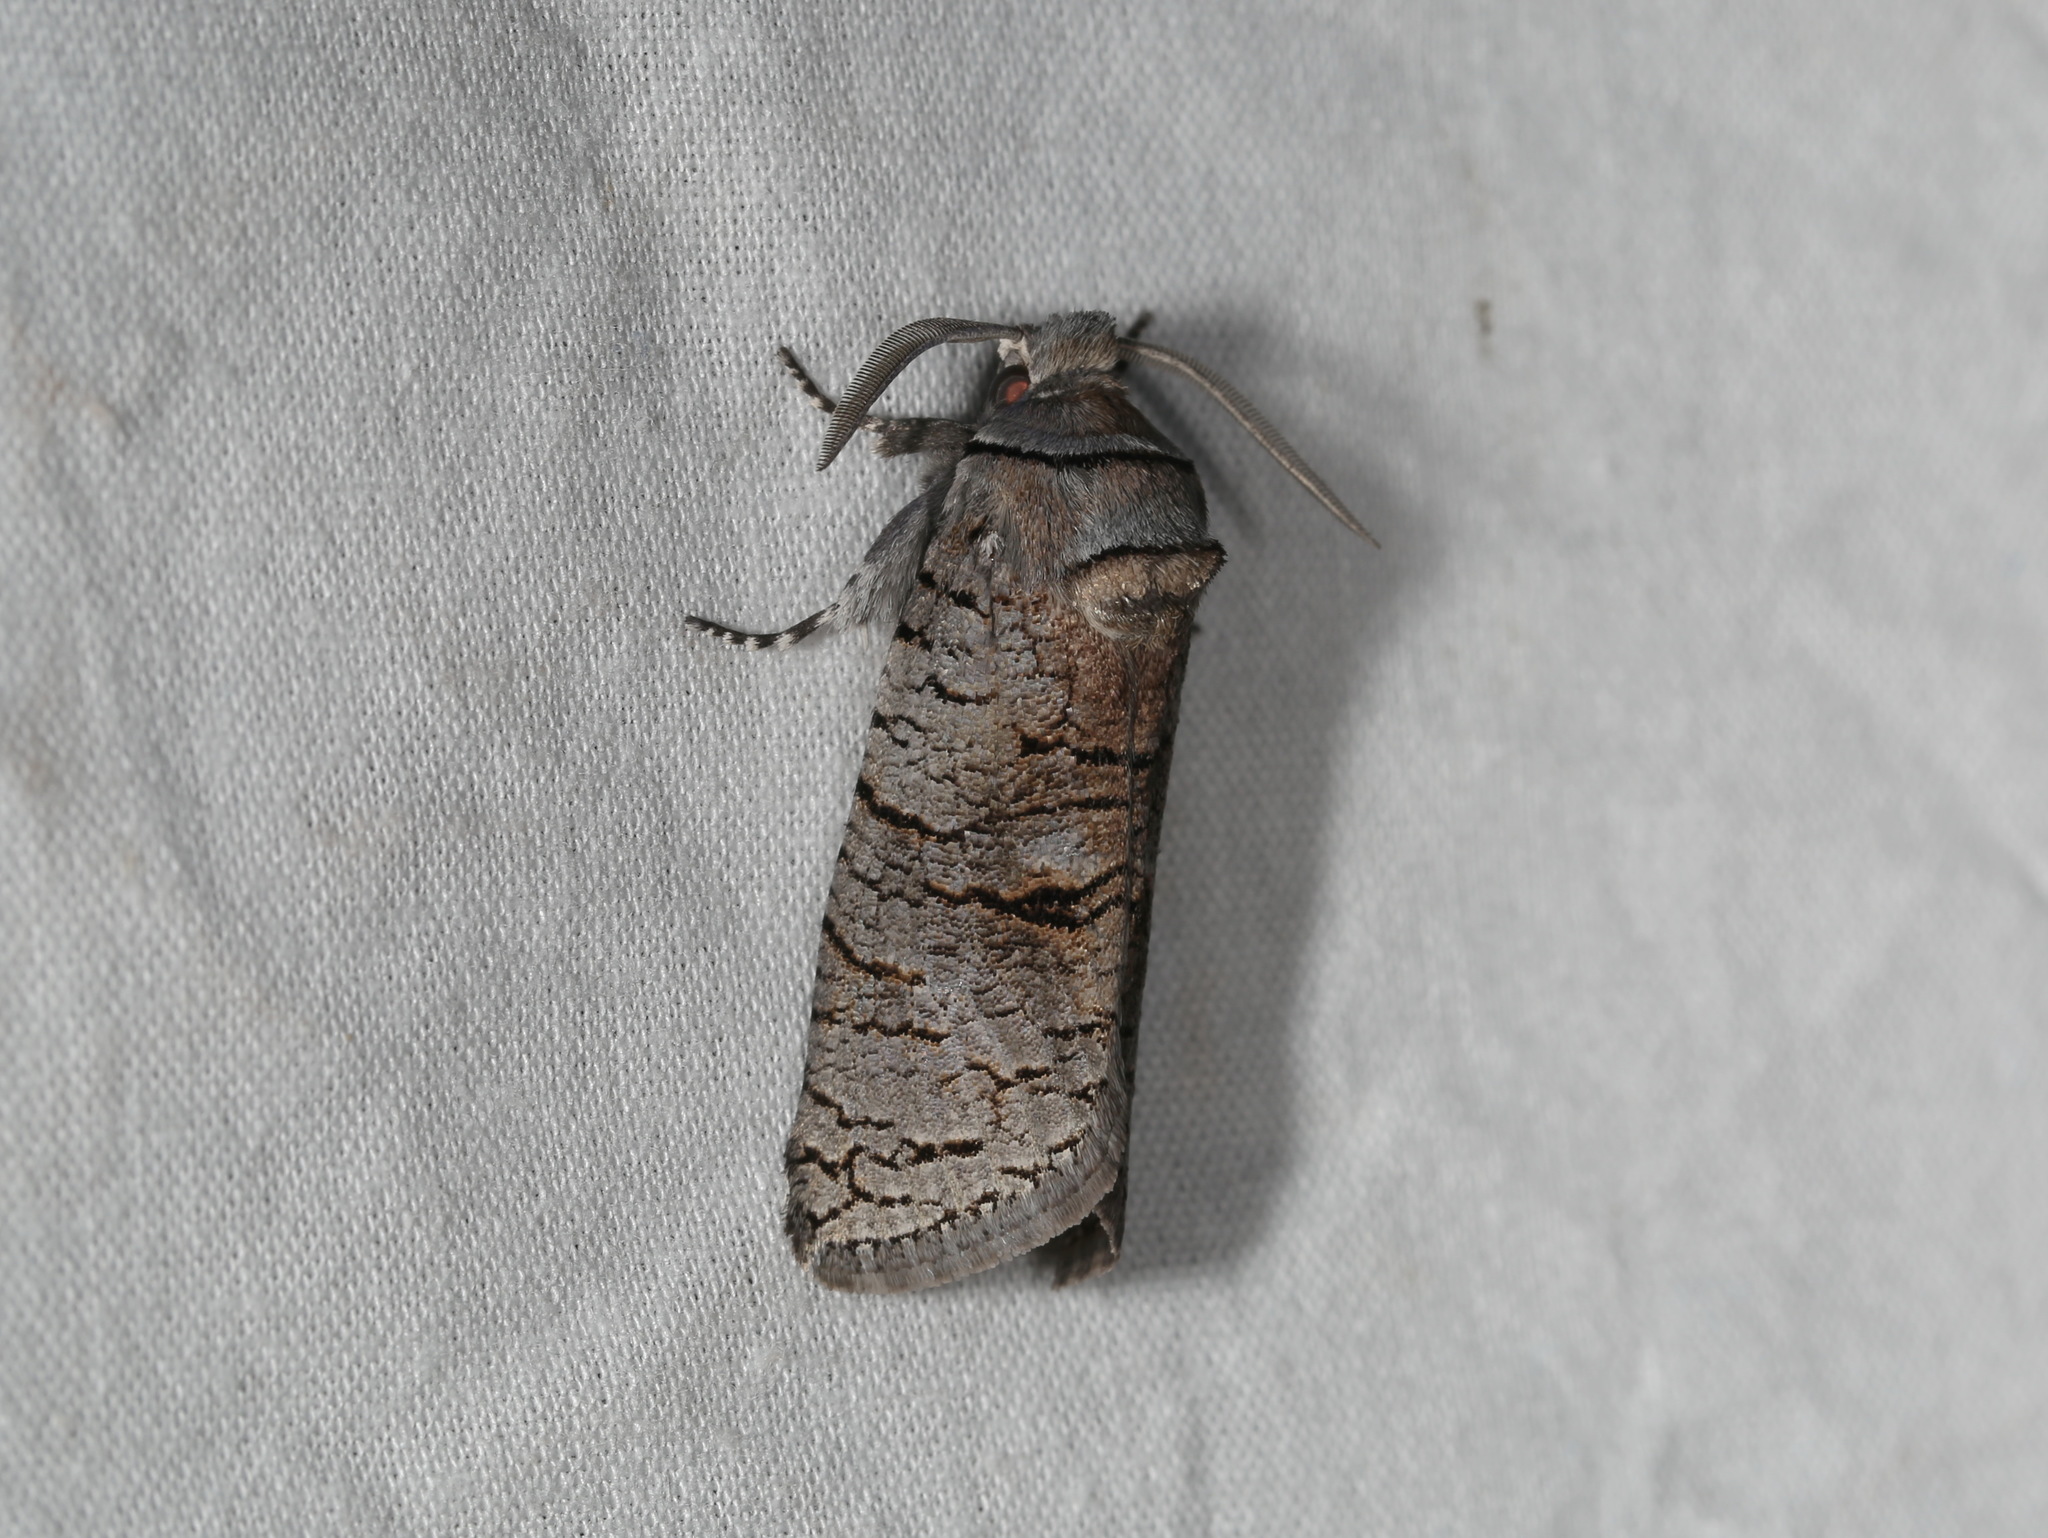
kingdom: Animalia
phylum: Arthropoda
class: Insecta
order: Lepidoptera
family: Cossidae
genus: Culama
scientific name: Culama suffusca
